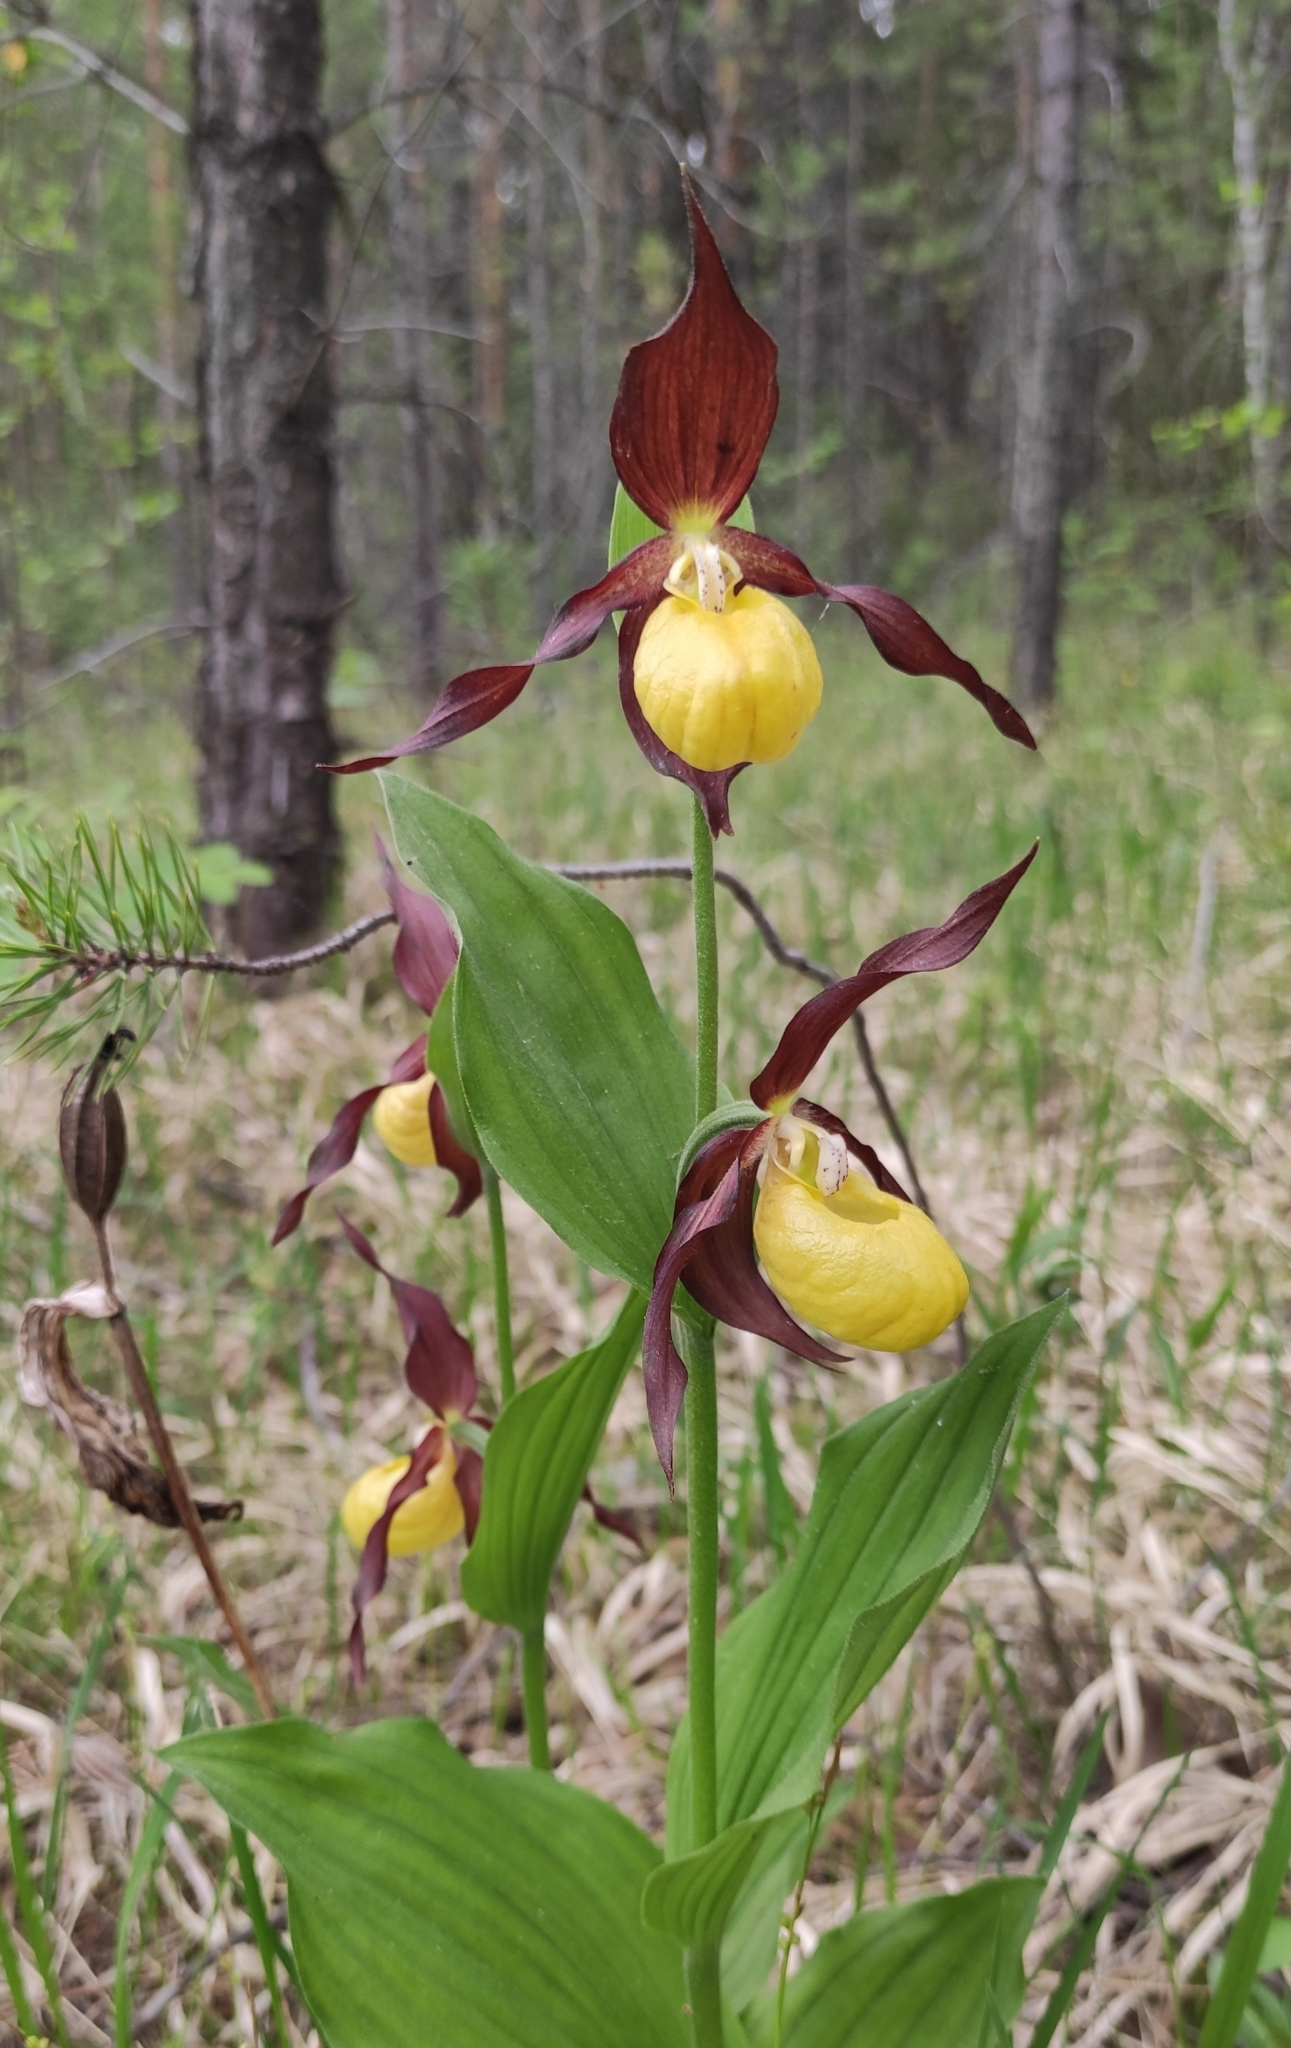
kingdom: Plantae
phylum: Tracheophyta
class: Liliopsida
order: Asparagales
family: Orchidaceae
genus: Cypripedium
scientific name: Cypripedium calceolus
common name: Lady's-slipper
